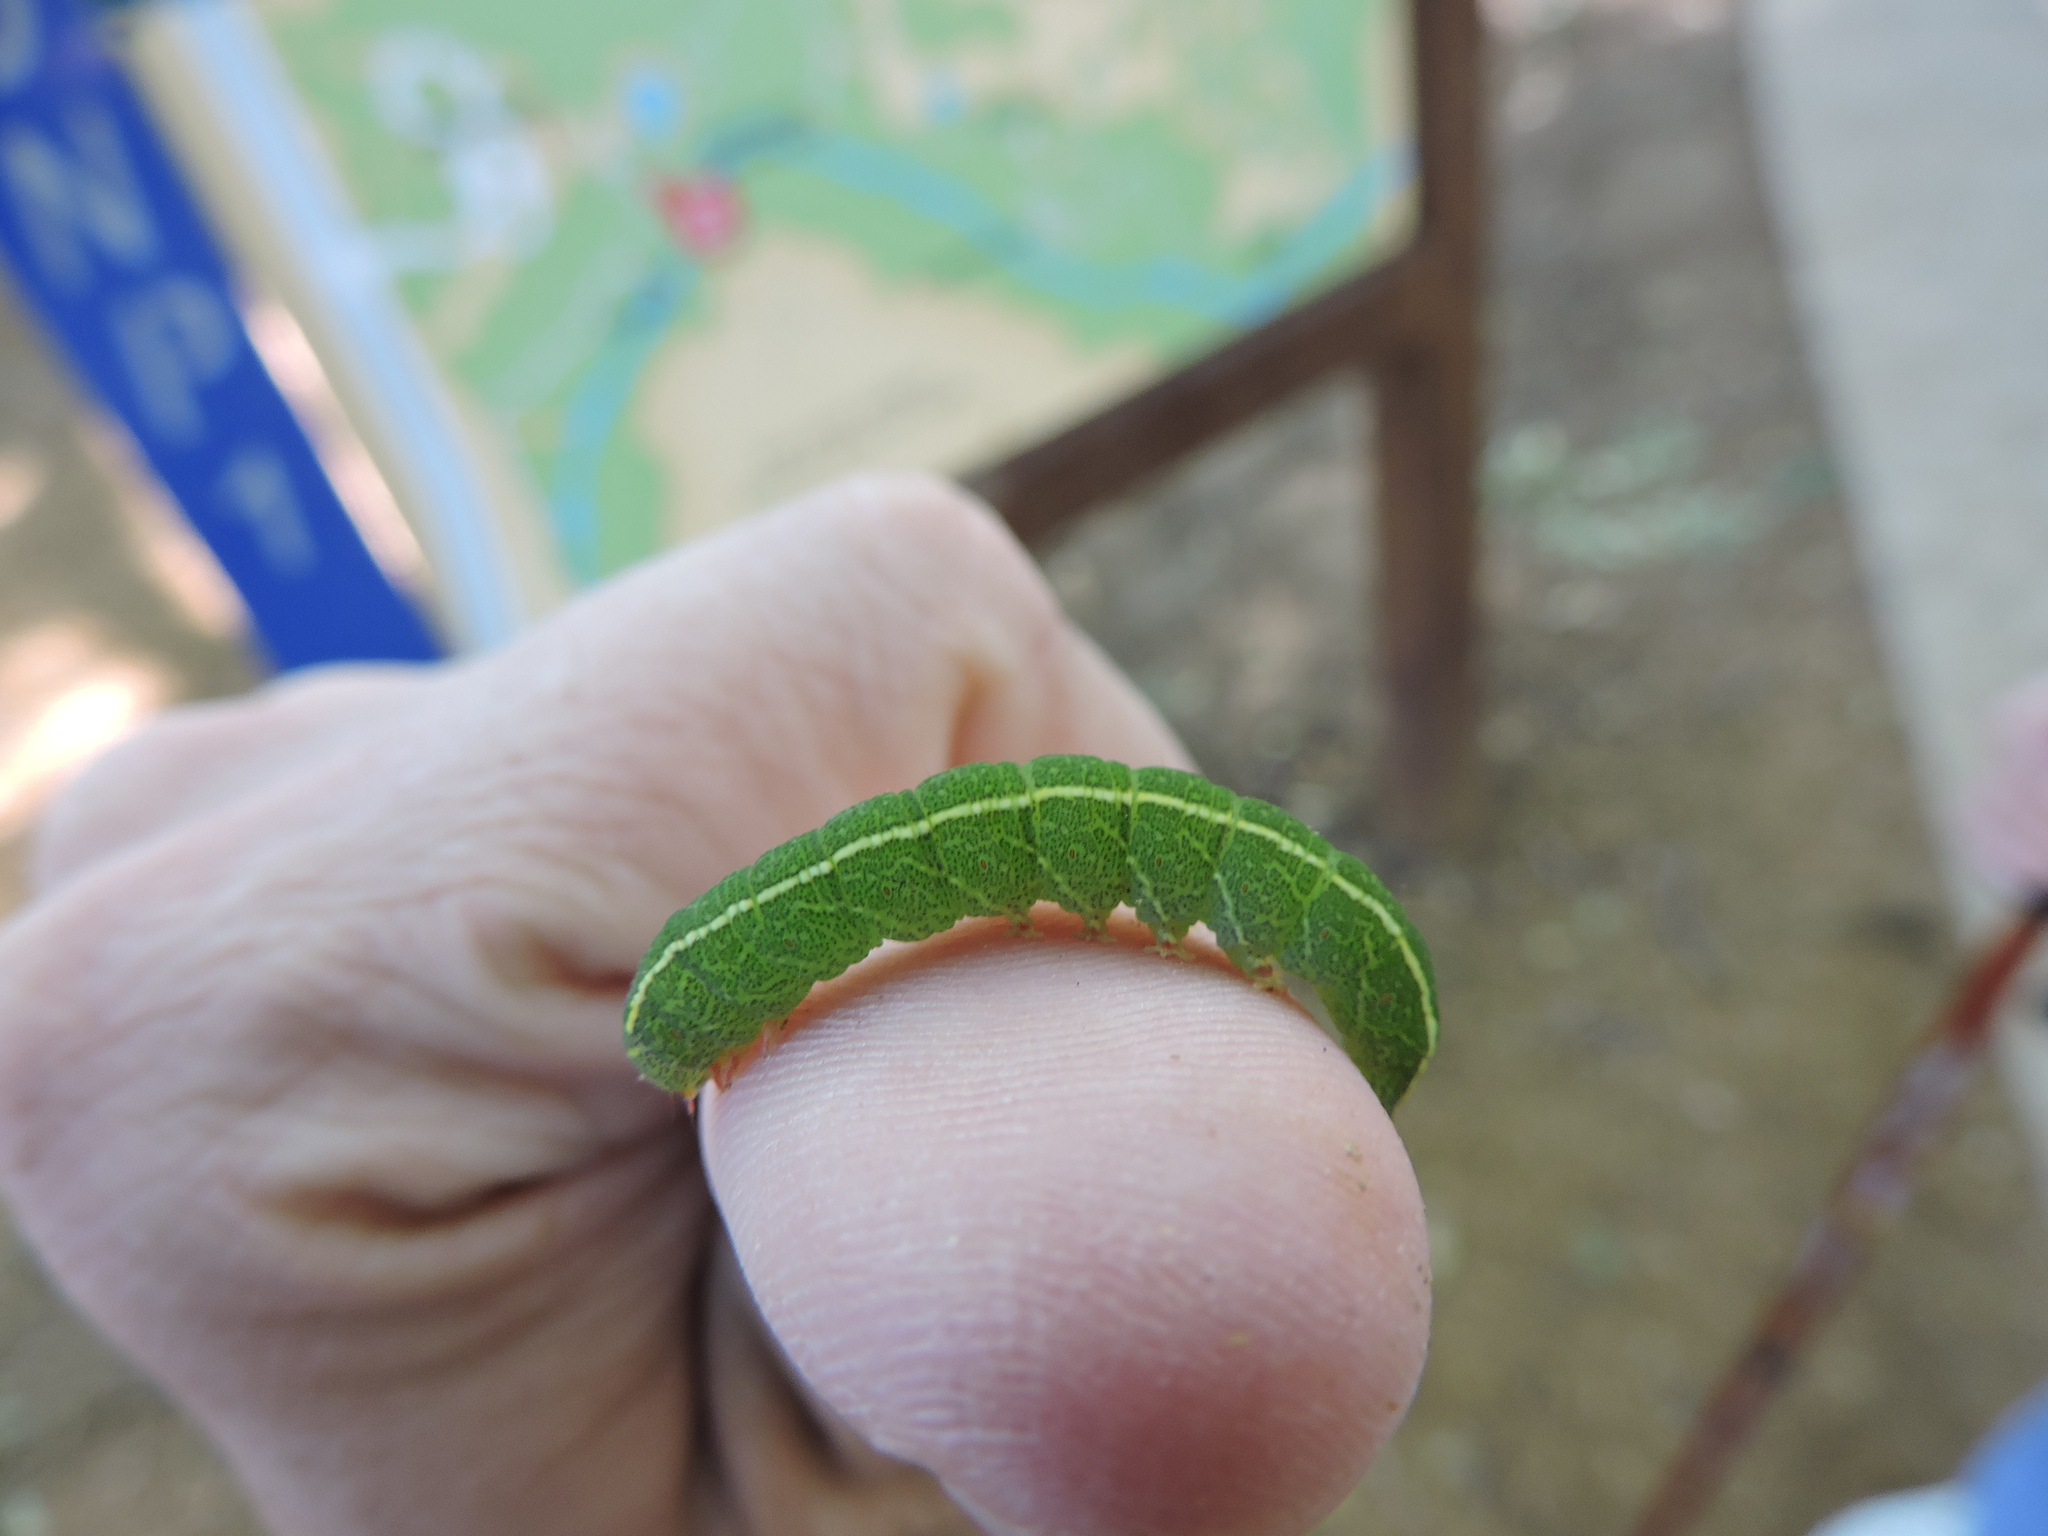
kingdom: Animalia
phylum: Arthropoda
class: Insecta
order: Lepidoptera
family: Erebidae
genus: Panopoda
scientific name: Panopoda rufimargo
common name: Red-lined panopoda moth
